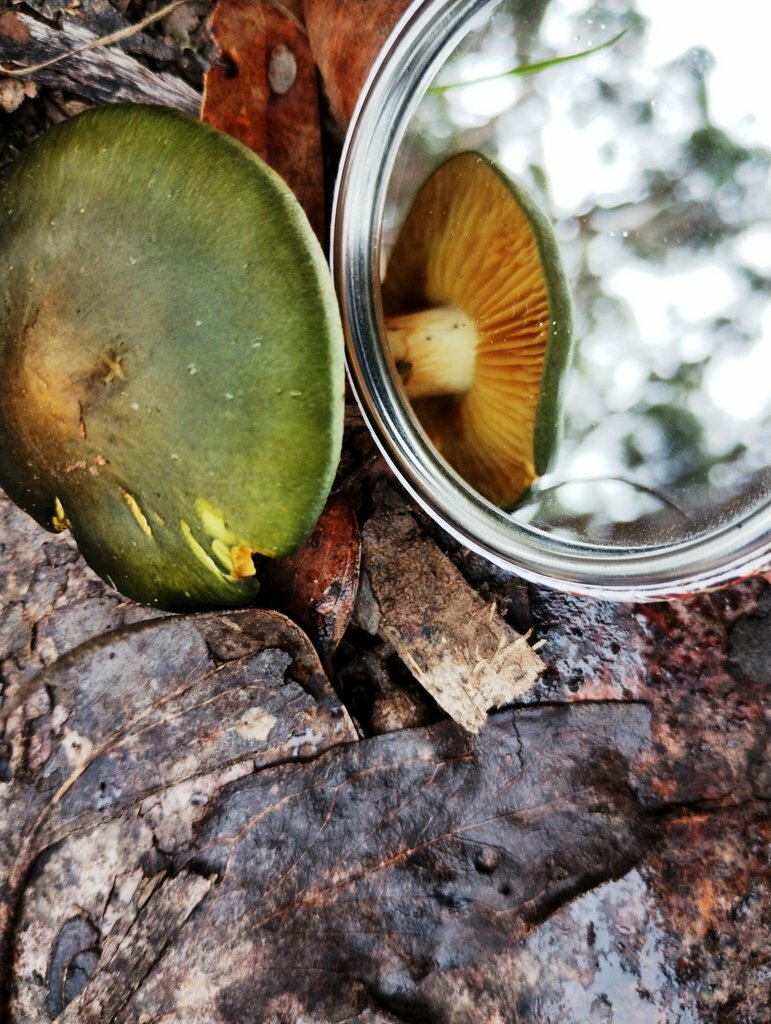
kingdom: Fungi
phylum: Basidiomycota
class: Agaricomycetes
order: Agaricales
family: Cortinariaceae
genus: Cortinarius
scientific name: Cortinarius austrovenetus
